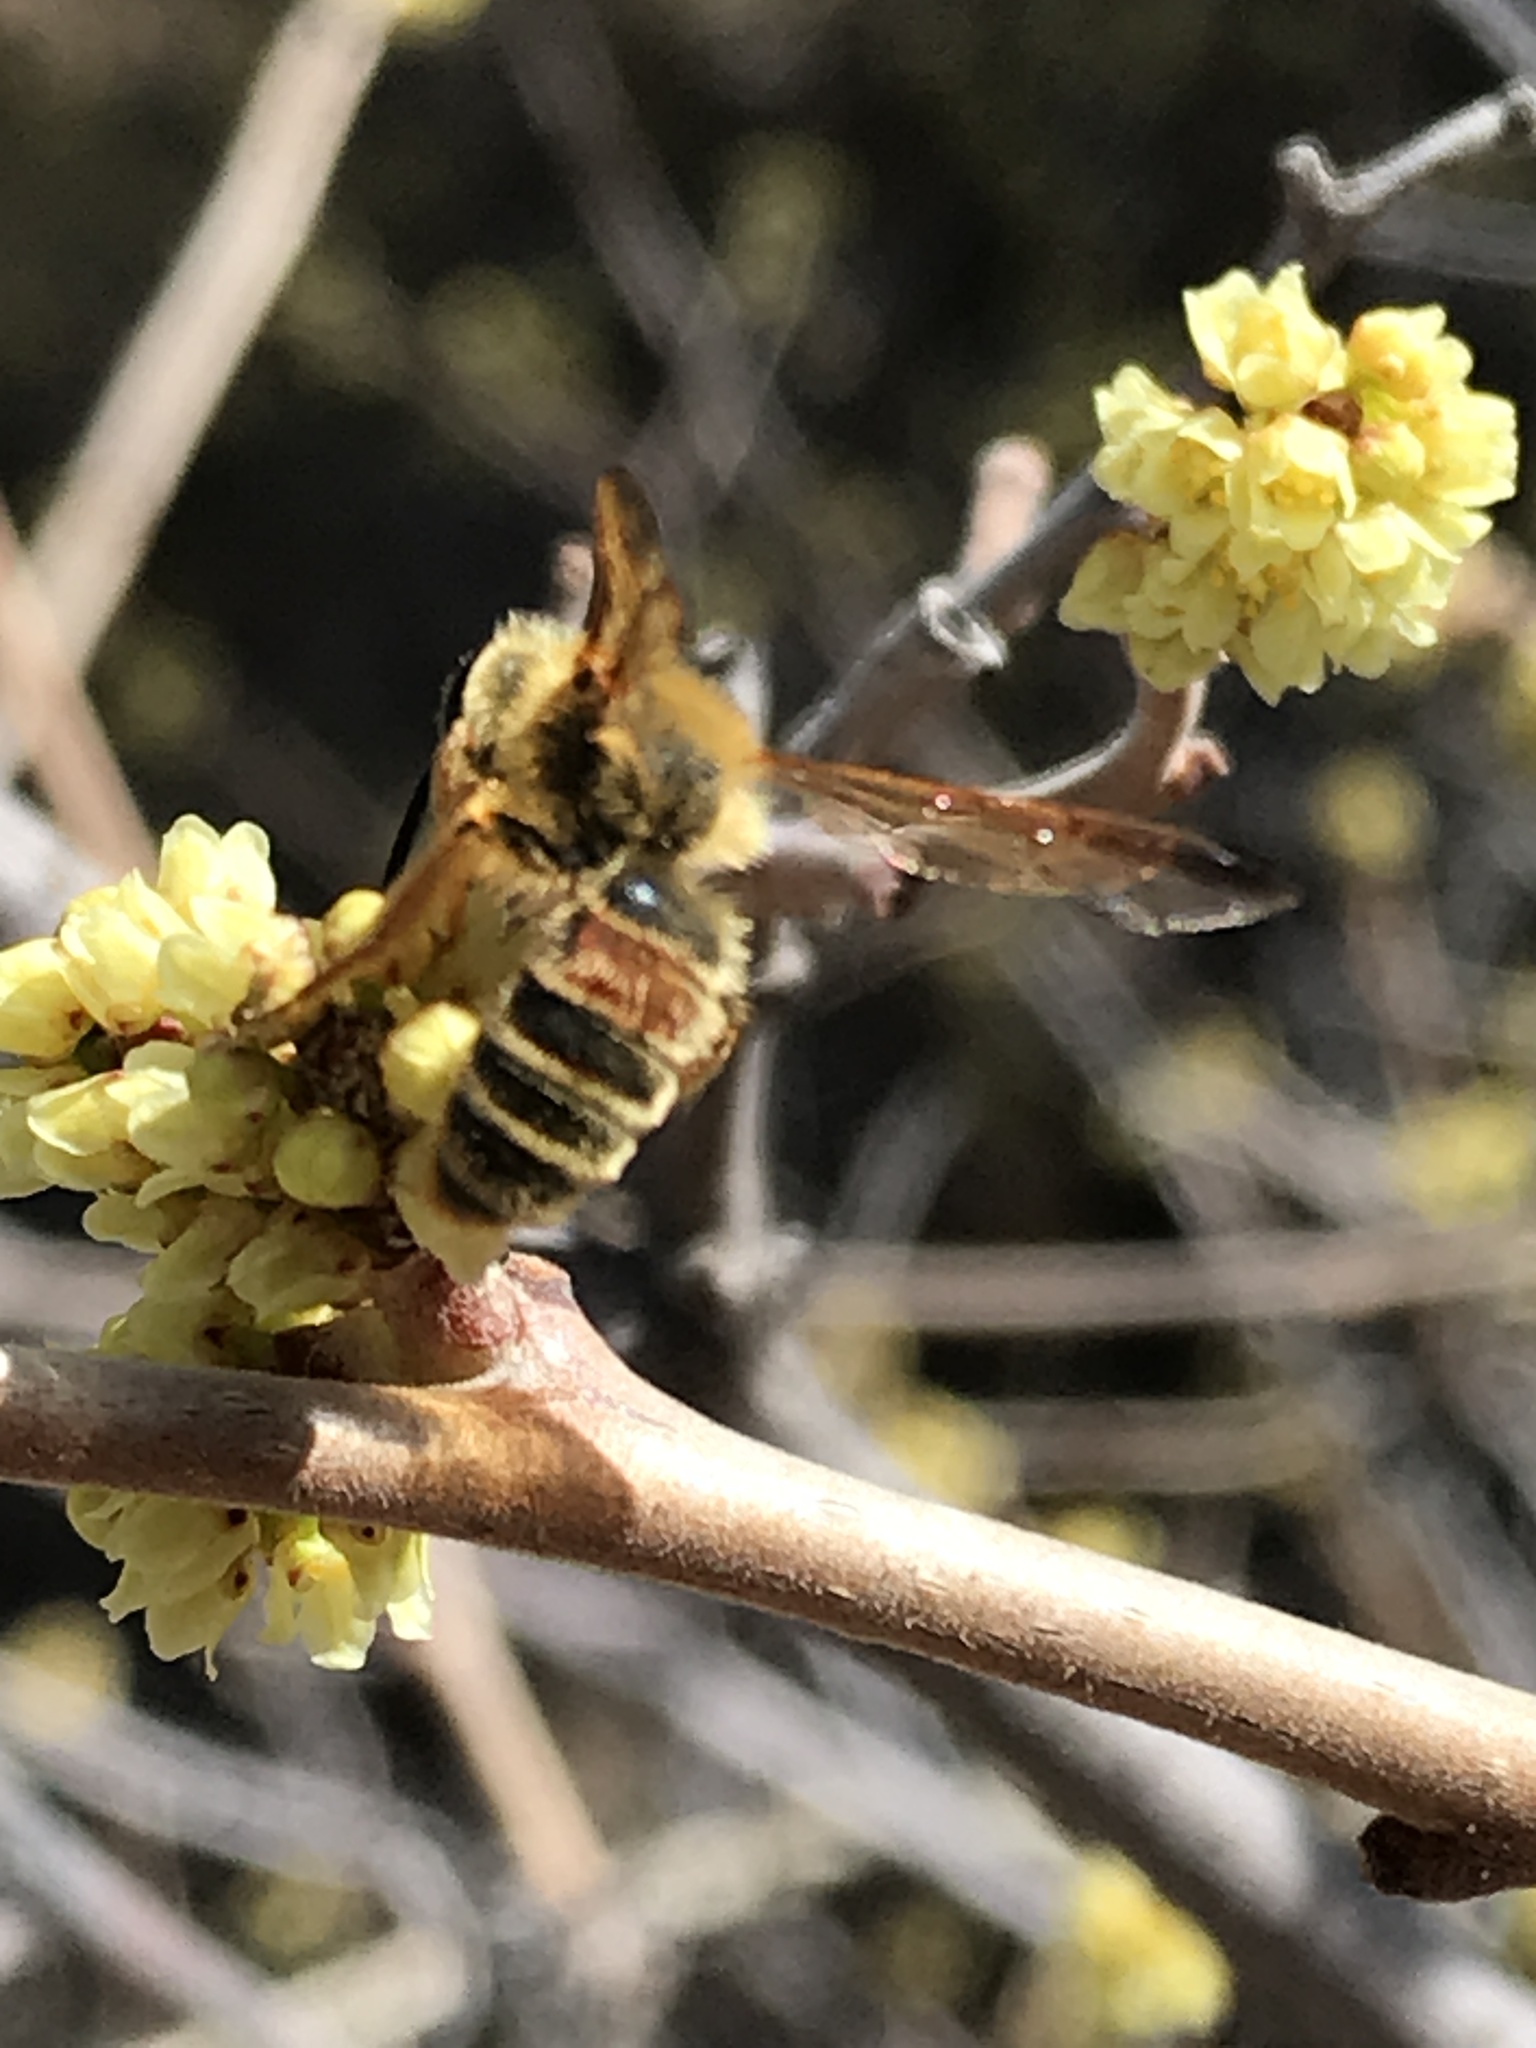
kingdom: Animalia
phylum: Arthropoda
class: Insecta
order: Hymenoptera
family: Andrenidae
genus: Andrena
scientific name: Andrena prunorum
